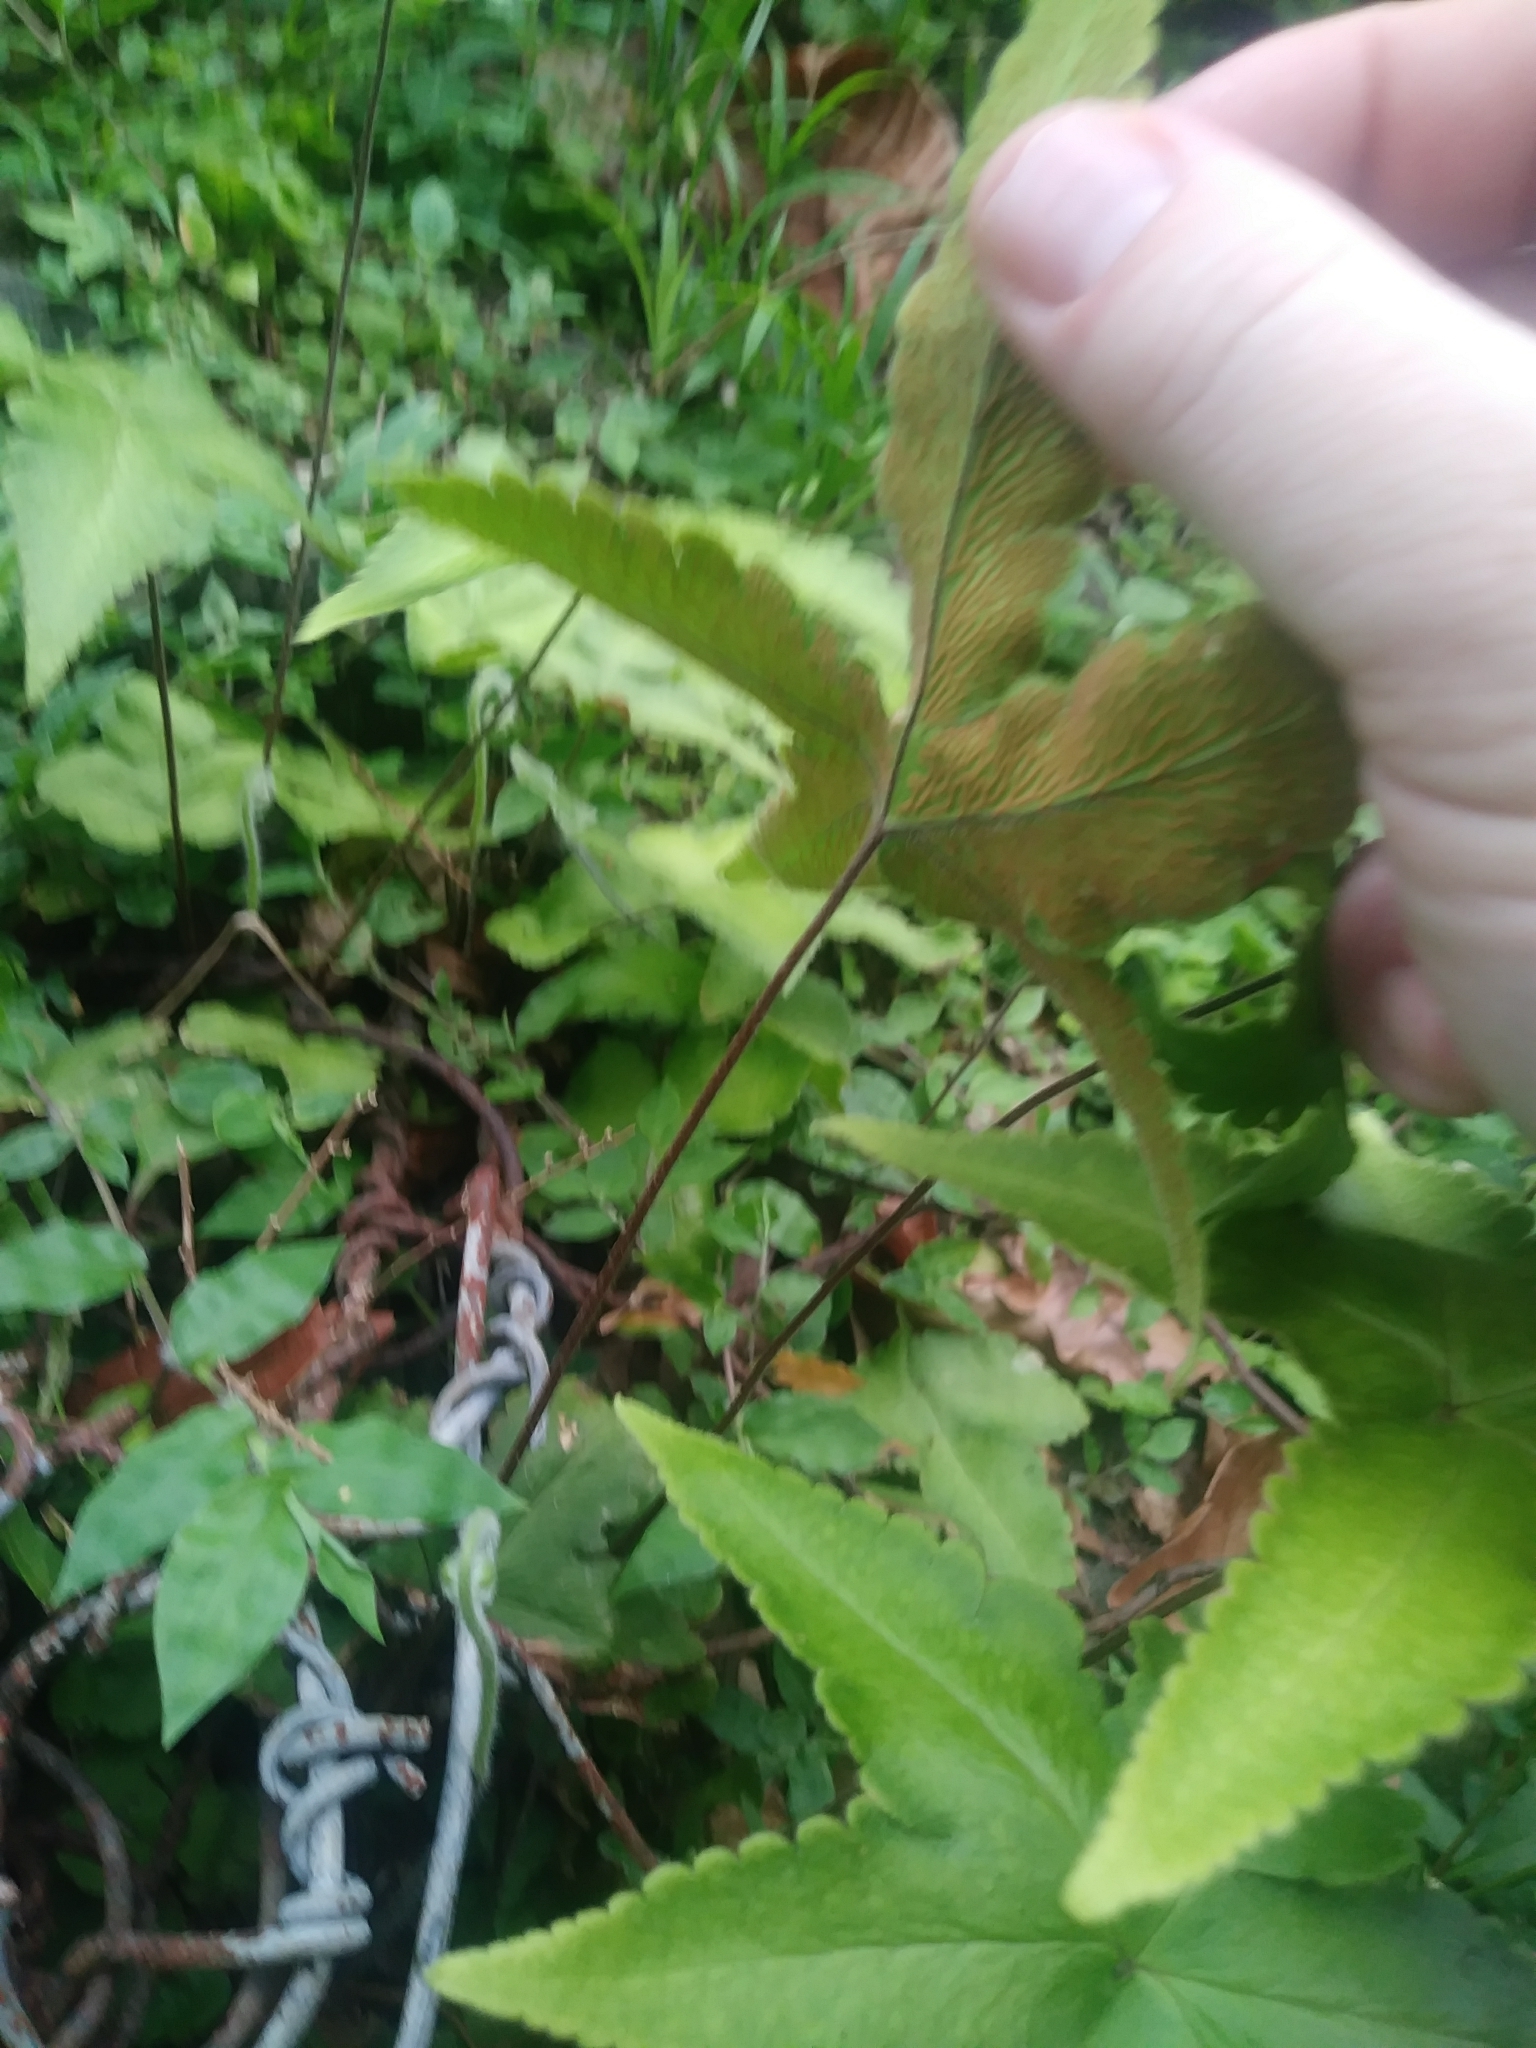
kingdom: Plantae
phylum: Tracheophyta
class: Polypodiopsida
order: Polypodiales
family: Pteridaceae
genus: Hemionitis
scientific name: Hemionitis palmata
